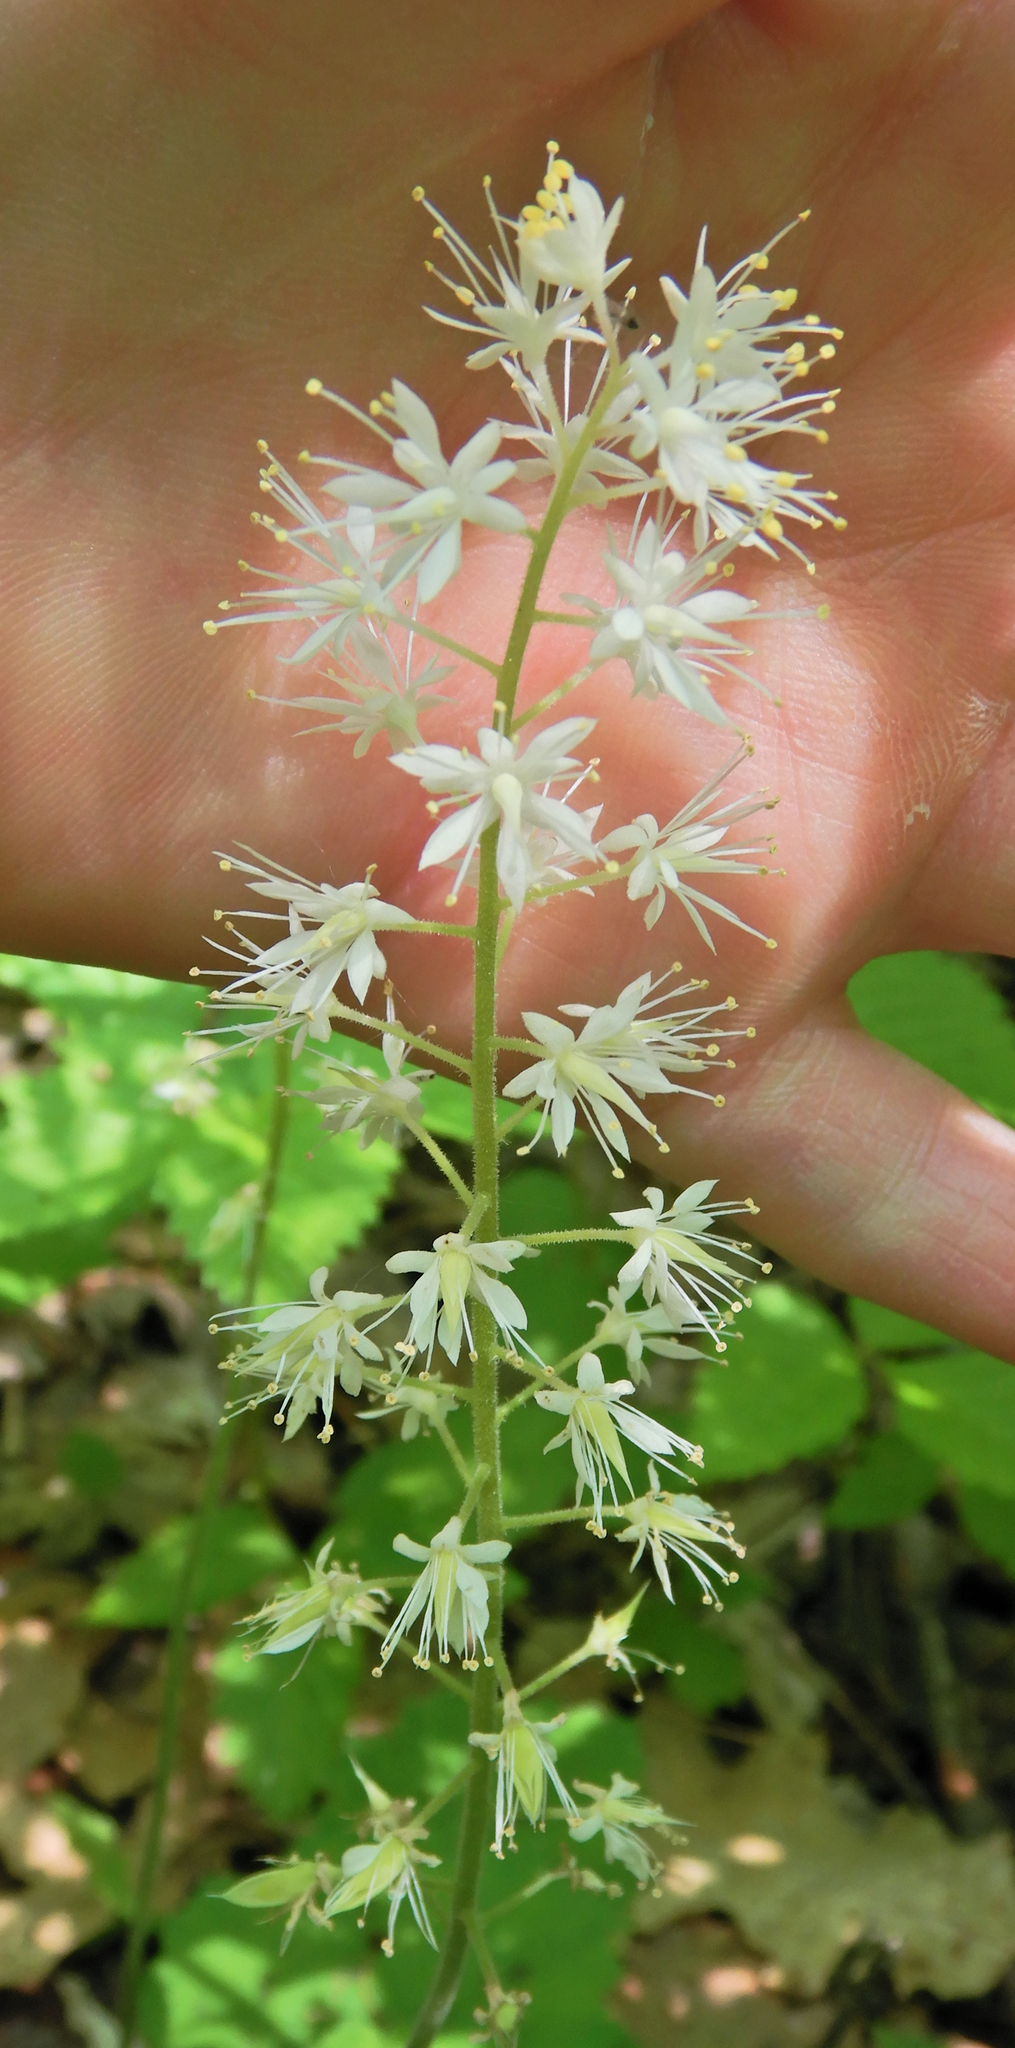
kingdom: Plantae
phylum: Tracheophyta
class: Magnoliopsida
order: Saxifragales
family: Saxifragaceae
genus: Tiarella
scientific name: Tiarella stolonifera
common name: Stoloniferous foamflower
